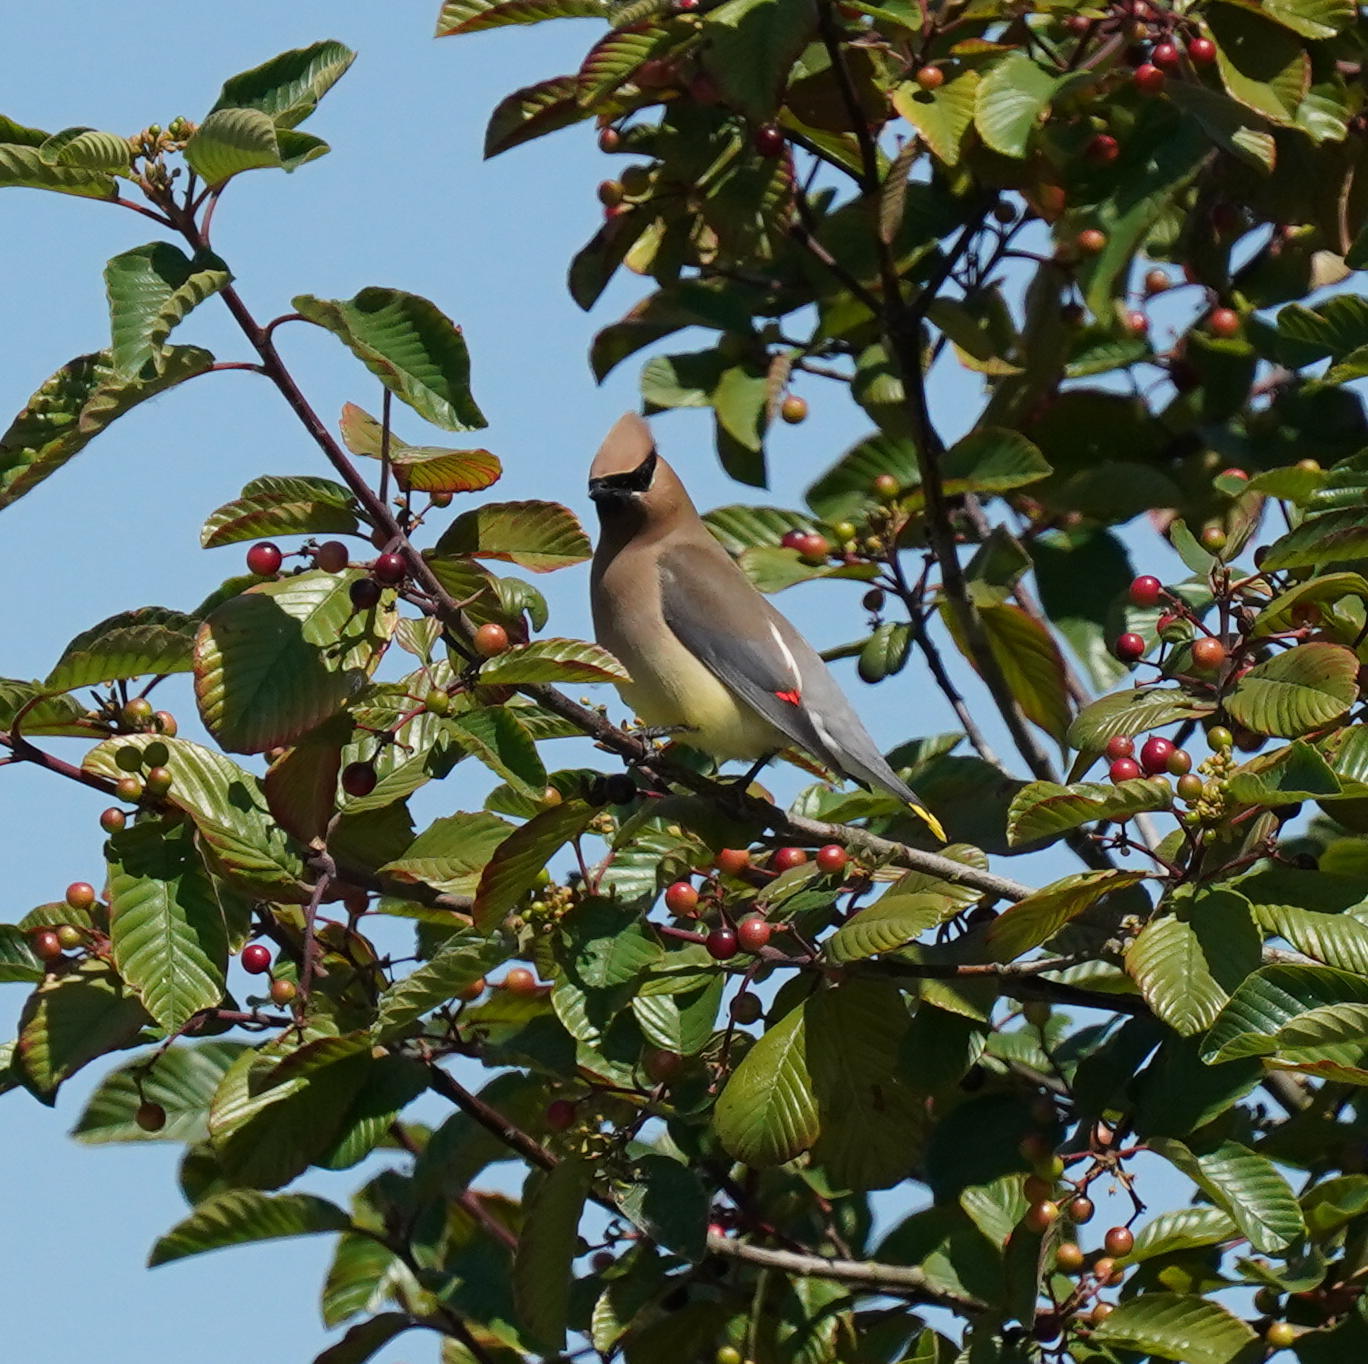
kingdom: Animalia
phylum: Chordata
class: Aves
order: Passeriformes
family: Bombycillidae
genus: Bombycilla
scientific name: Bombycilla cedrorum
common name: Cedar waxwing
